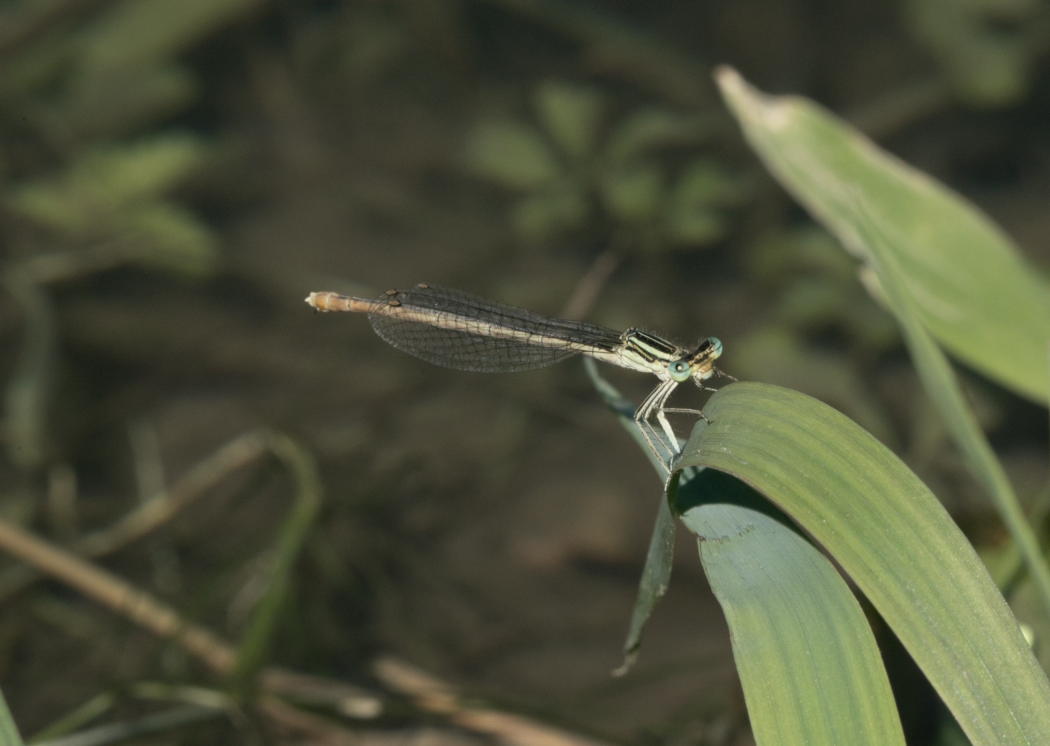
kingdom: Animalia
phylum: Arthropoda
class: Insecta
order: Odonata
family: Platycnemididae
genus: Platycnemis
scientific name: Platycnemis pennipes
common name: White-legged damselfly
